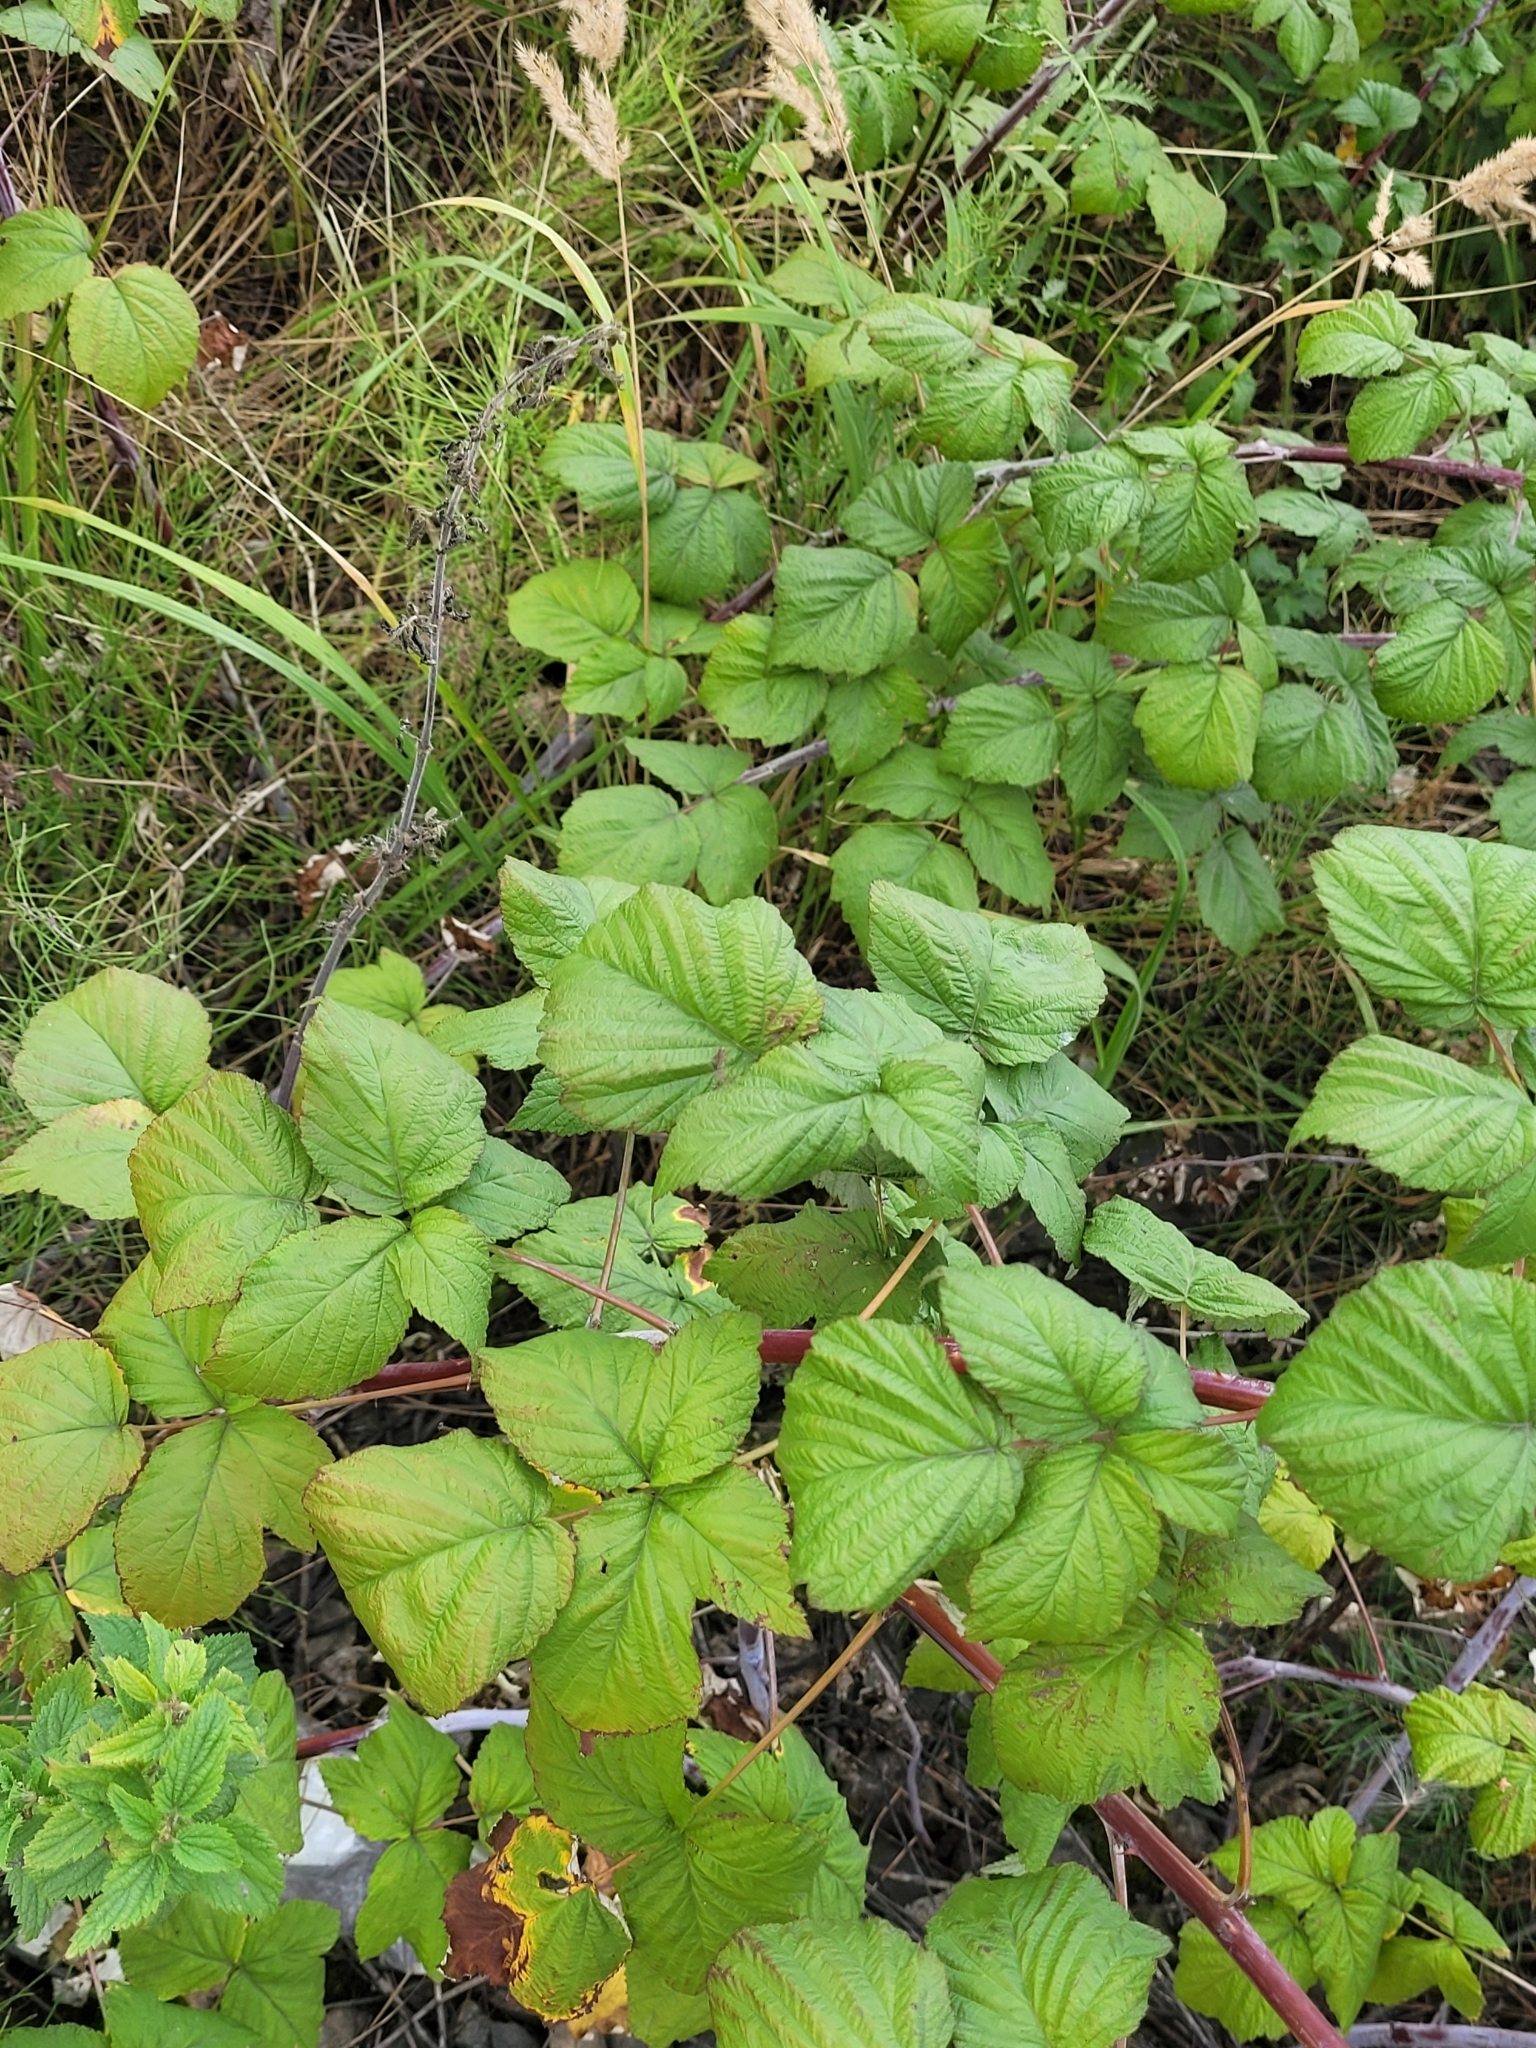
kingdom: Plantae
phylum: Tracheophyta
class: Magnoliopsida
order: Rosales
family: Rosaceae
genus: Rubus
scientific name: Rubus occidentalis
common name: Black raspberry
